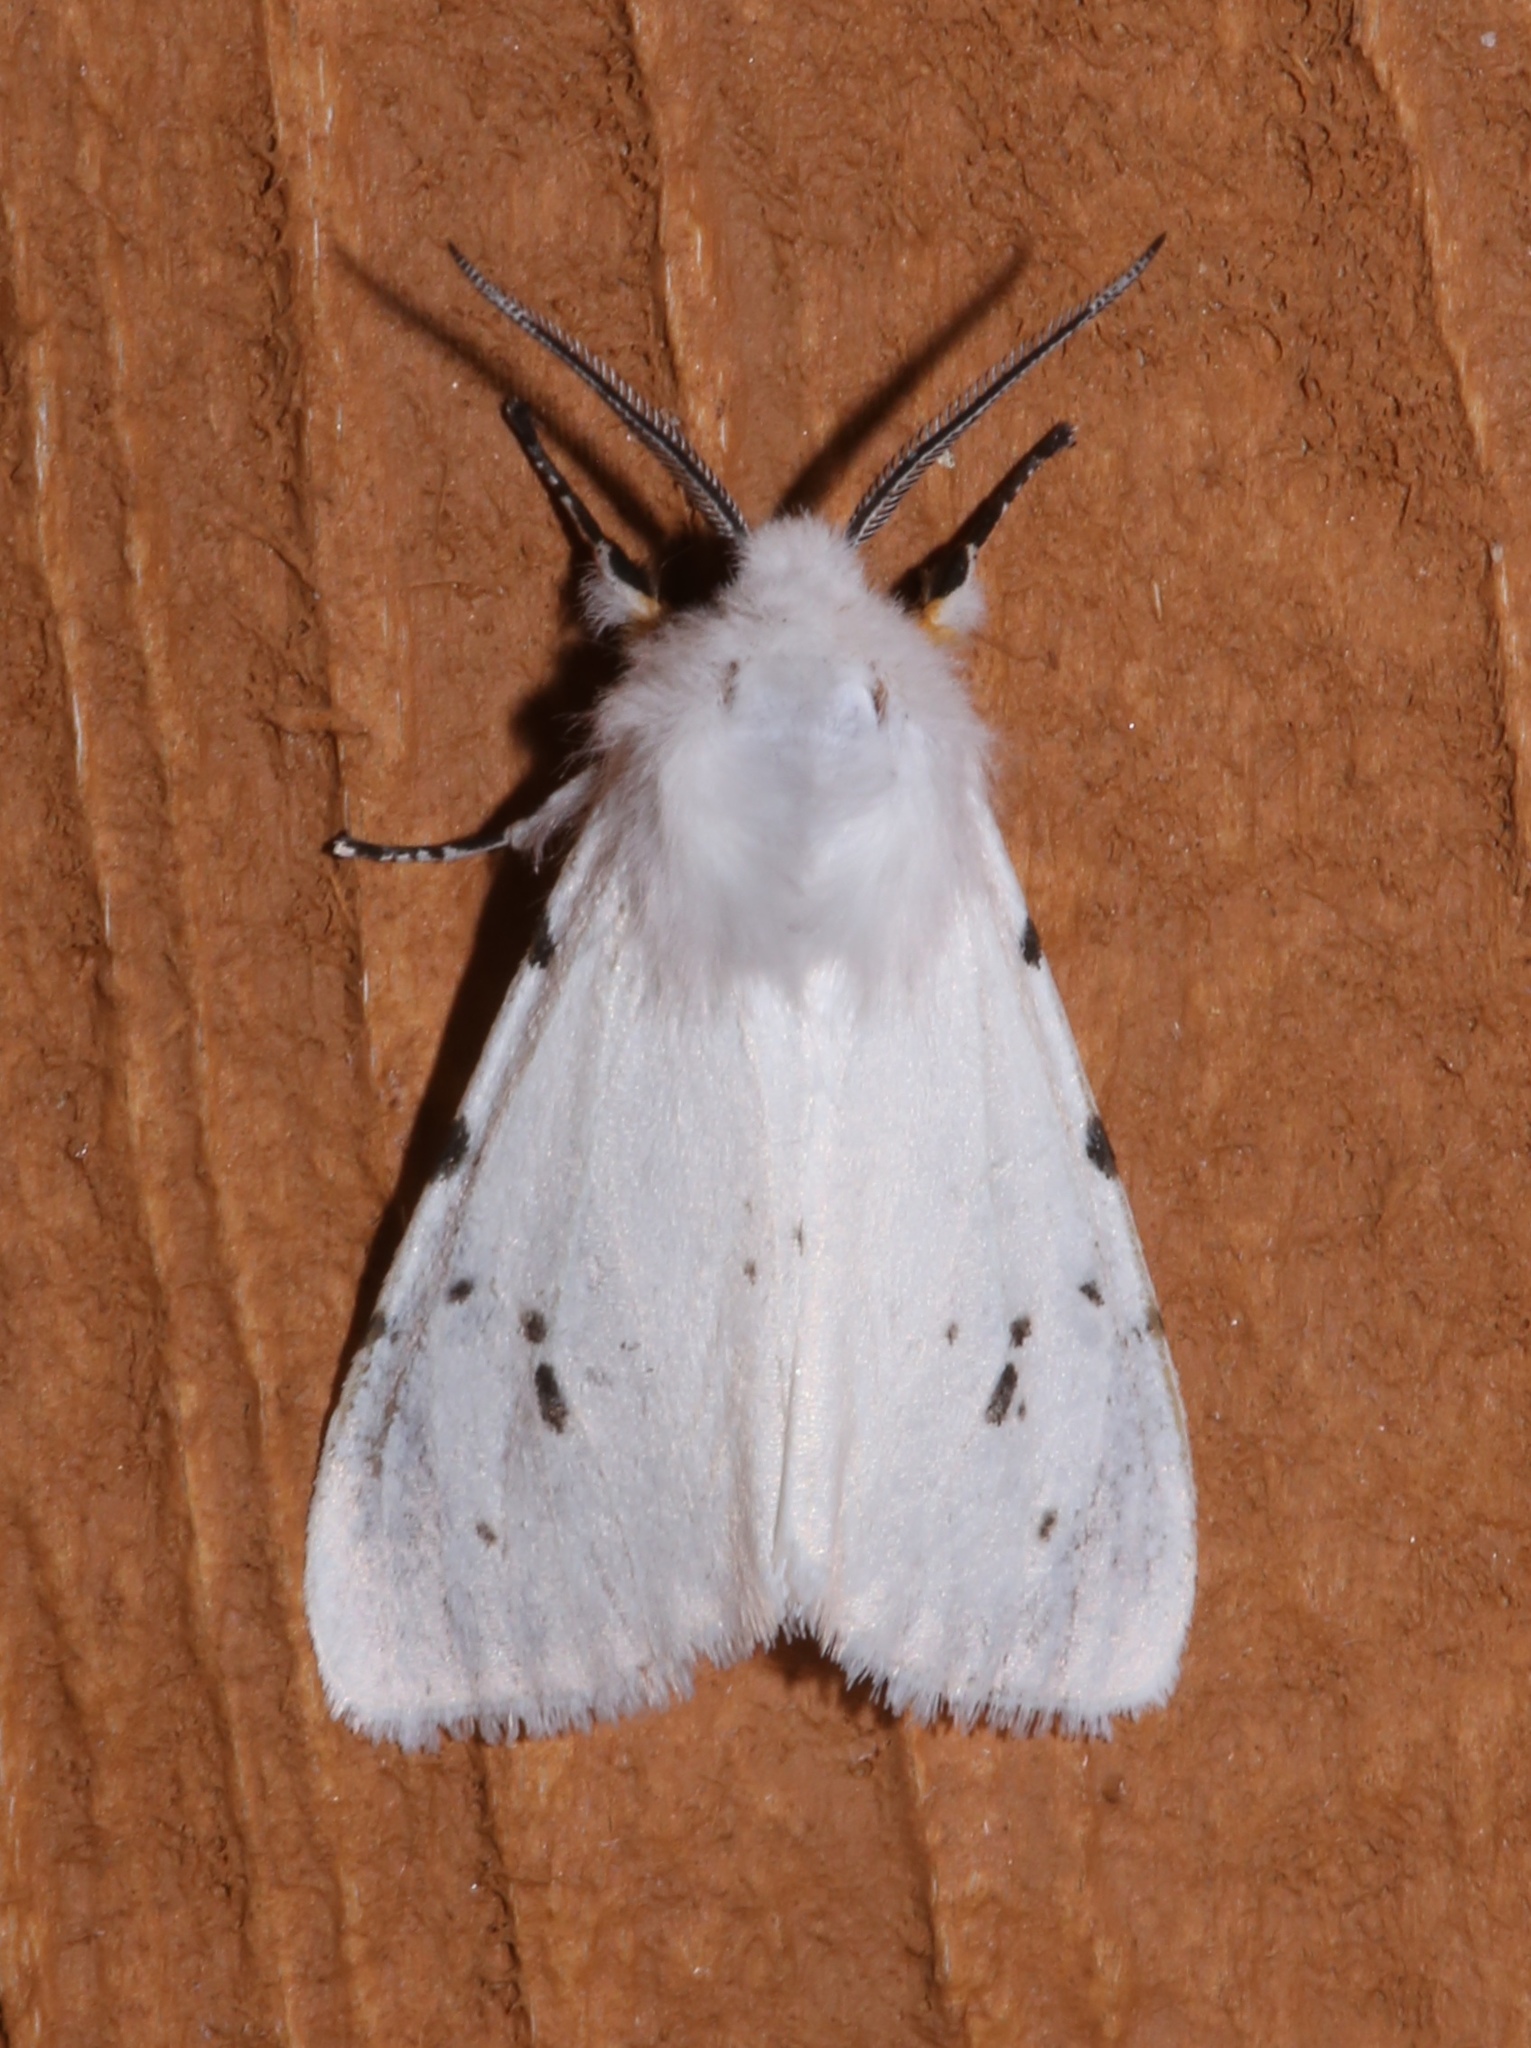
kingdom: Animalia
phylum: Arthropoda
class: Insecta
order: Lepidoptera
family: Erebidae
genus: Hyphantria
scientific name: Hyphantria cunea
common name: American white moth
